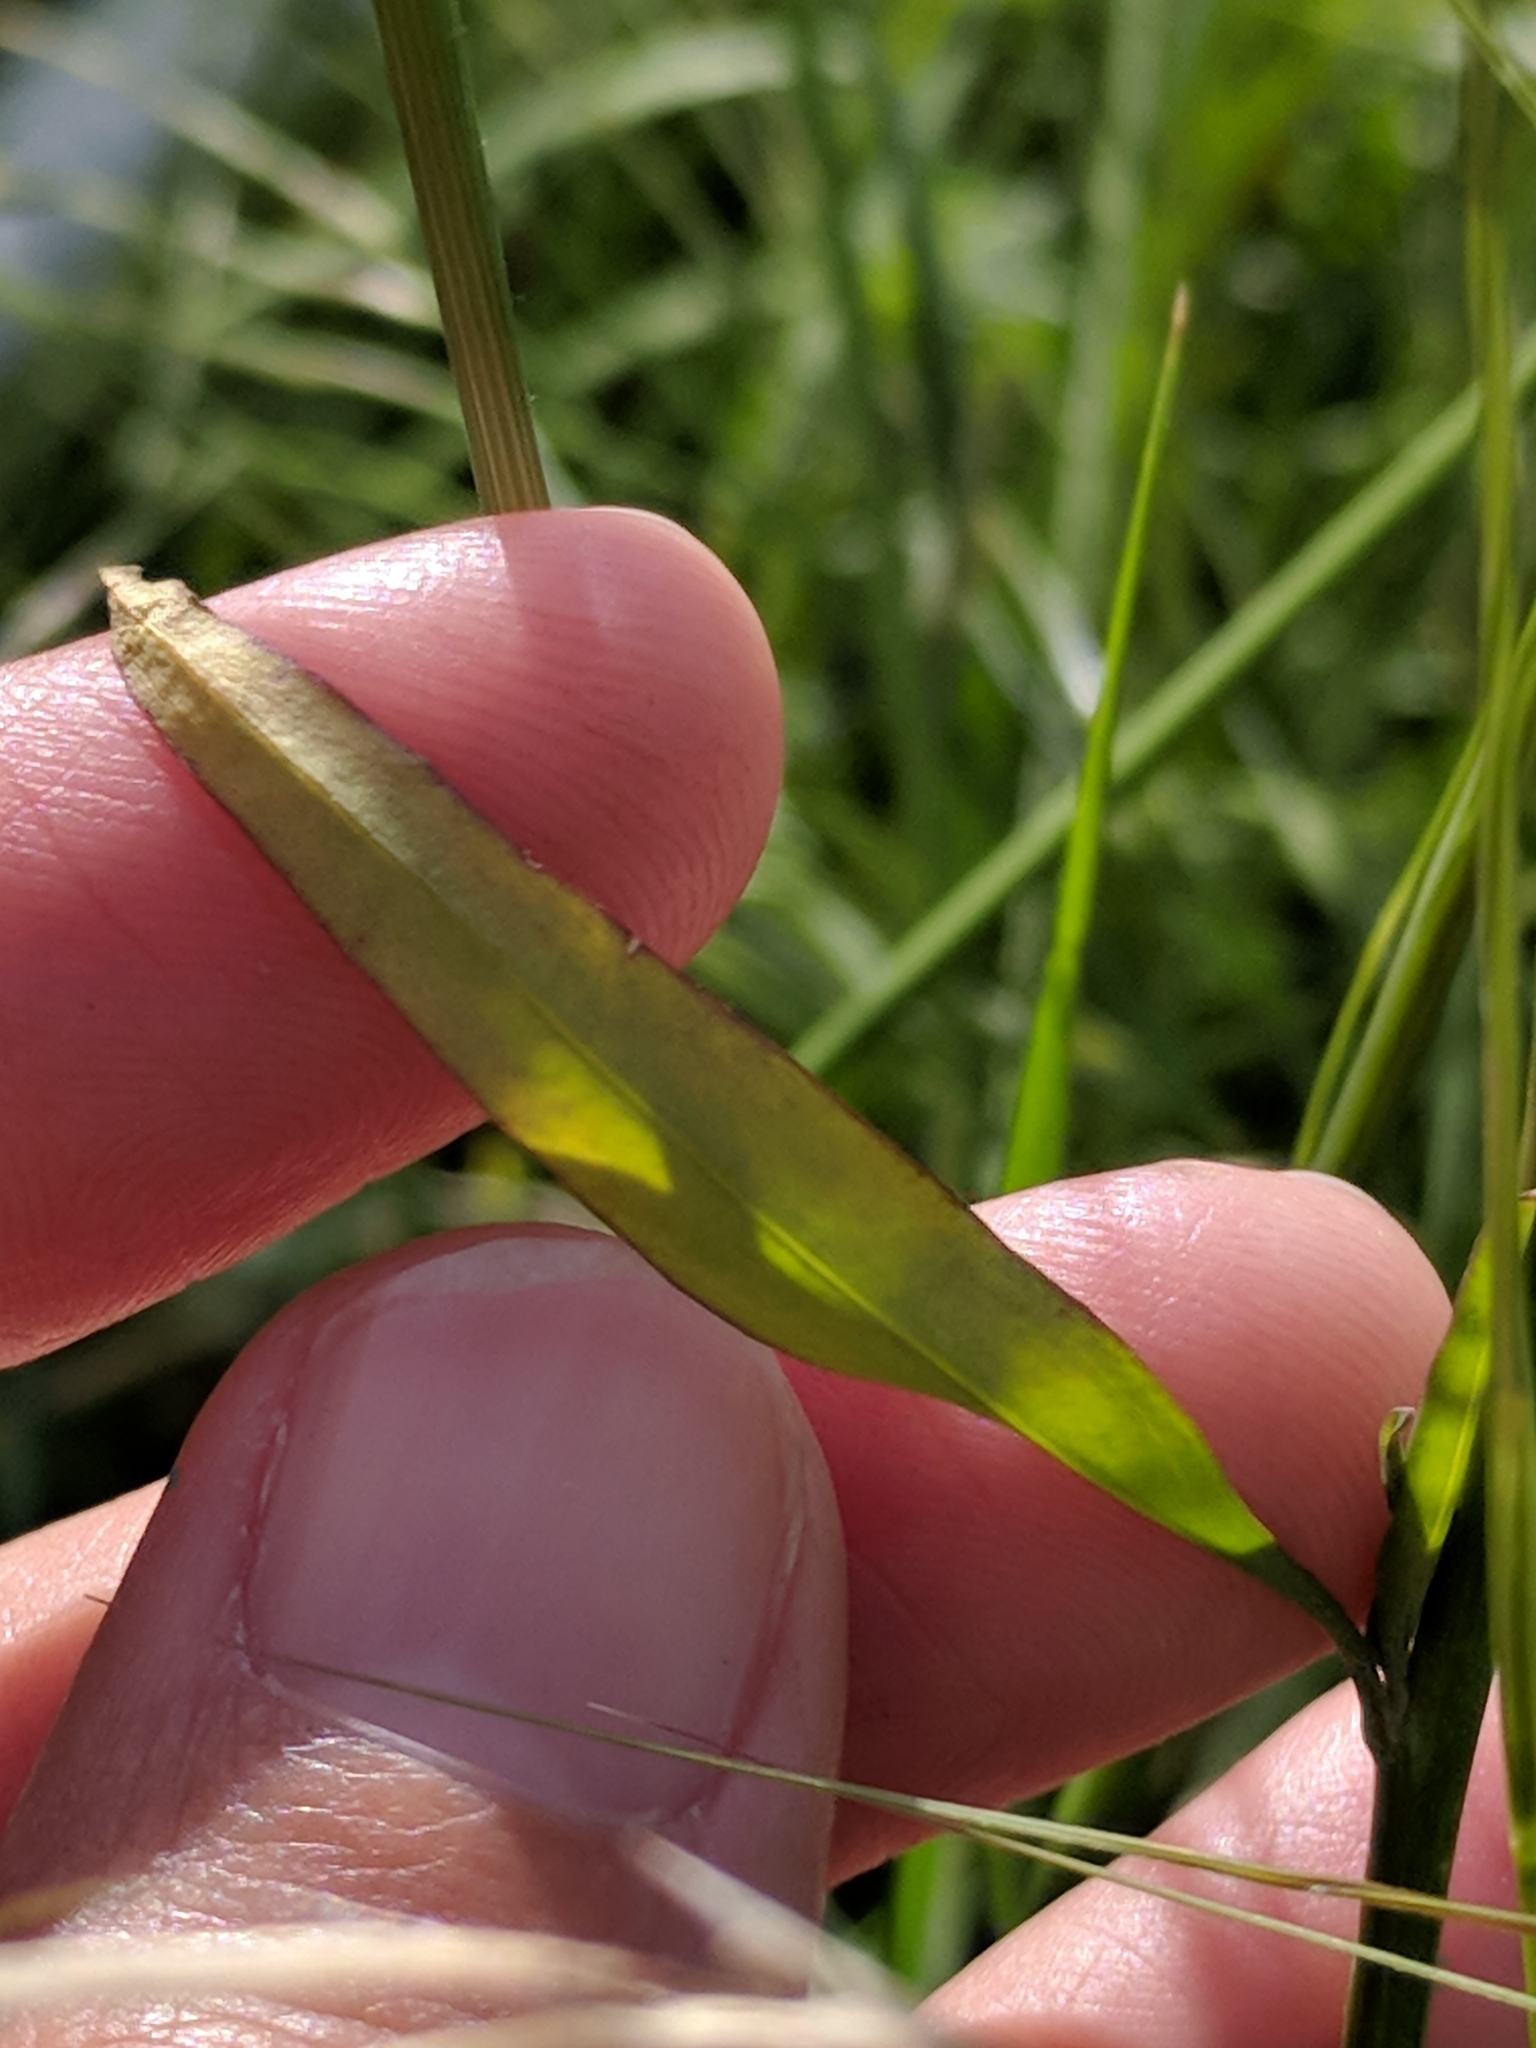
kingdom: Plantae
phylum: Tracheophyta
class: Magnoliopsida
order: Brassicales
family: Brassicaceae
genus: Streptanthus
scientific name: Streptanthus petiolaris
